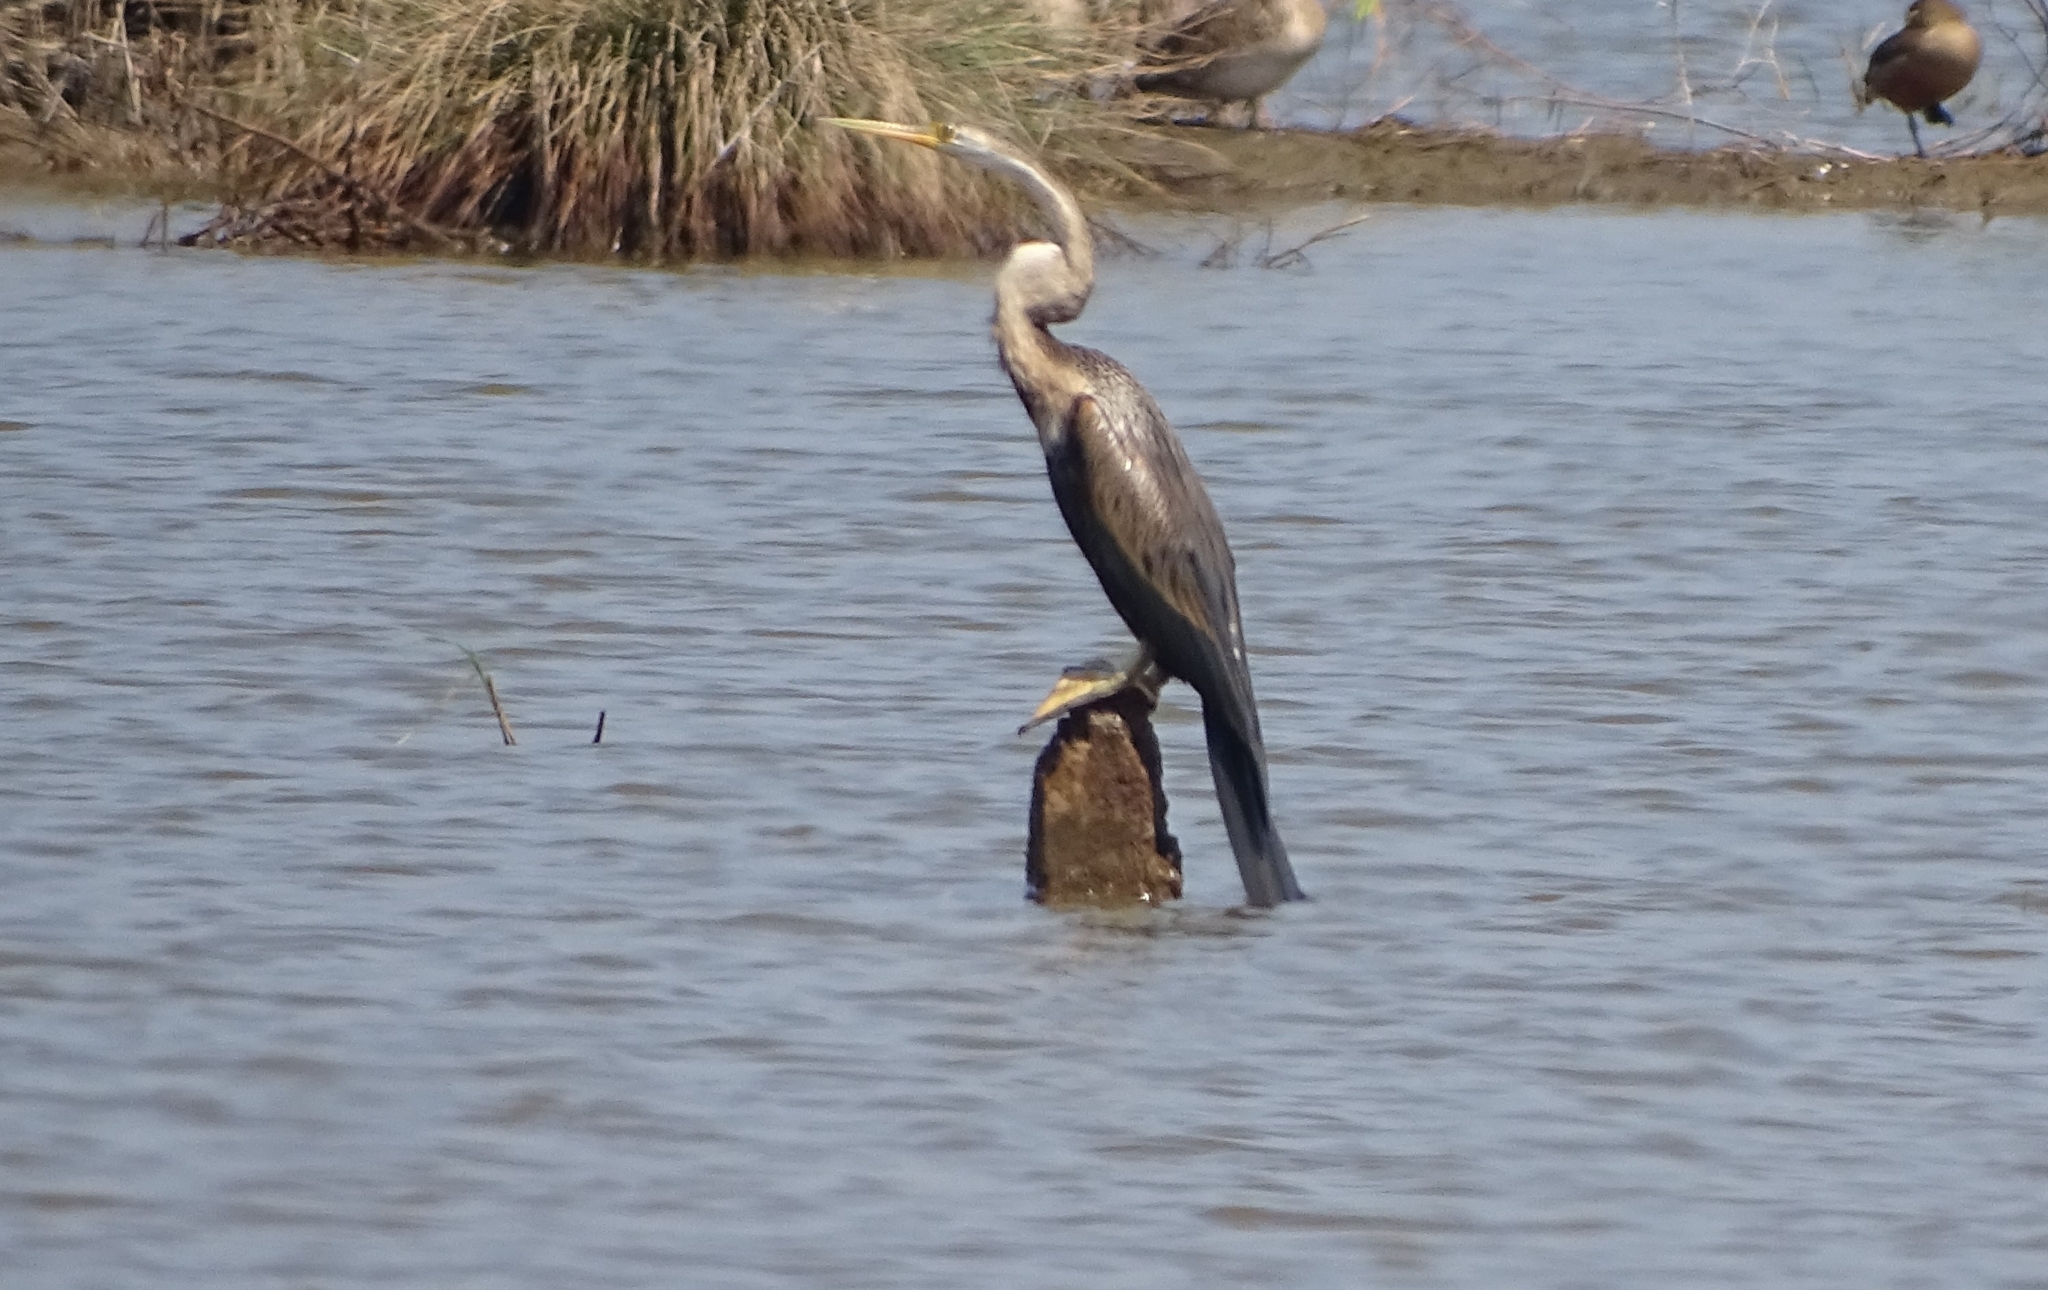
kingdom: Animalia
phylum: Chordata
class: Aves
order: Suliformes
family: Anhingidae
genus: Anhinga
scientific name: Anhinga melanogaster
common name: Oriental darter
